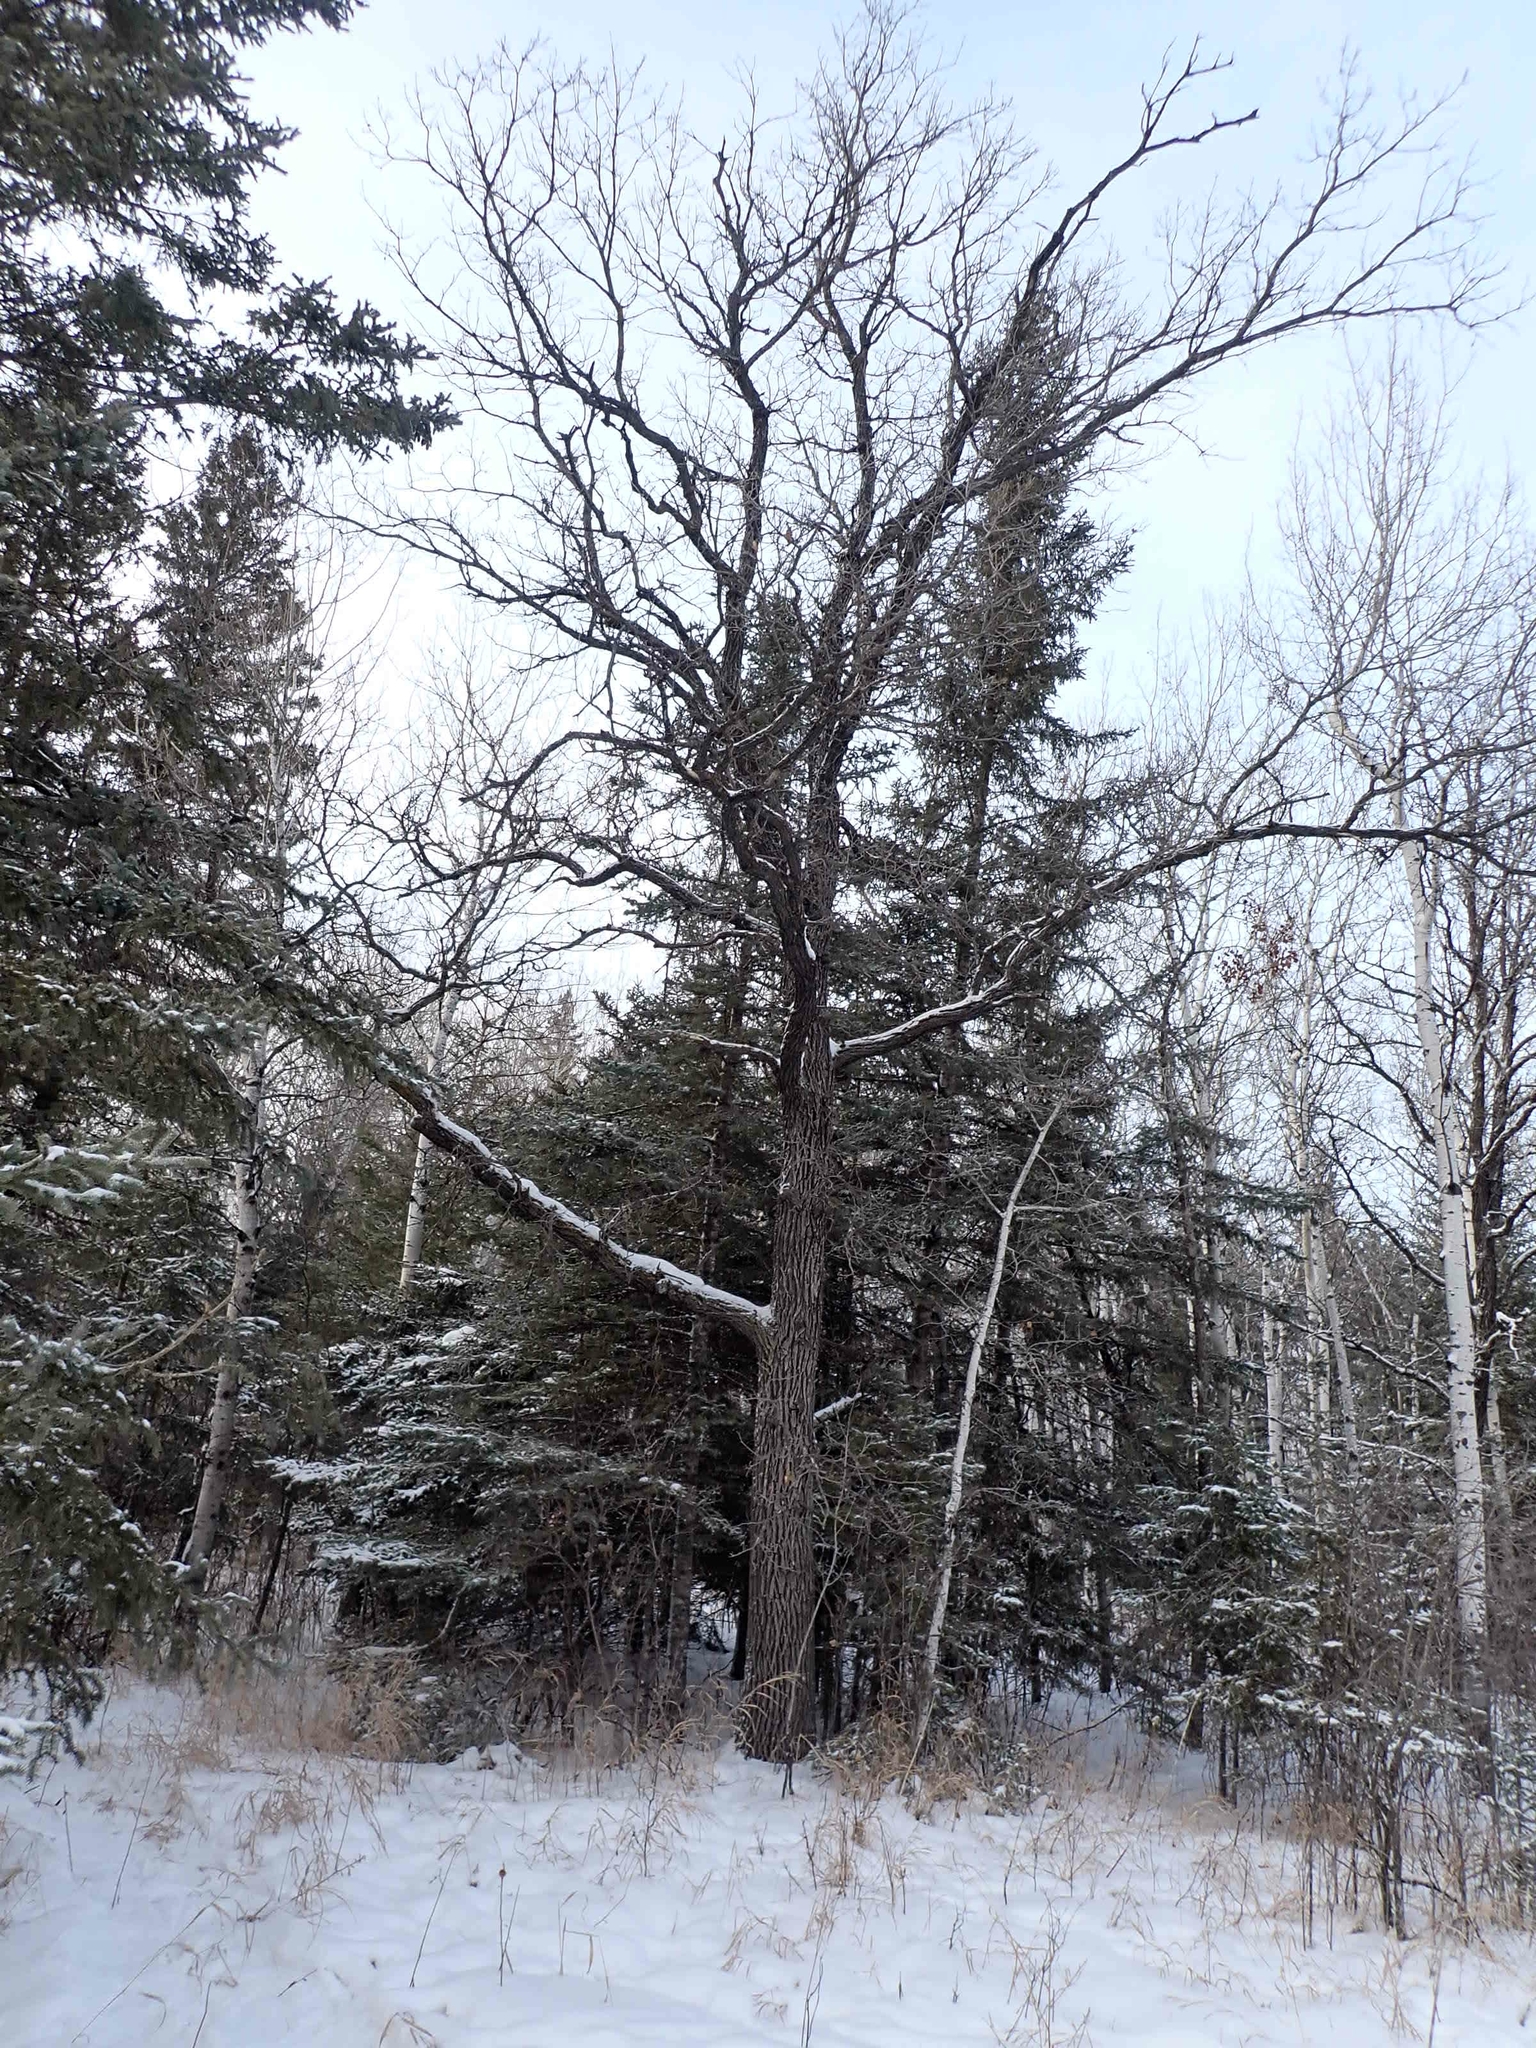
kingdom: Plantae
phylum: Tracheophyta
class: Magnoliopsida
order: Fagales
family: Fagaceae
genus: Quercus
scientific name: Quercus macrocarpa
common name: Bur oak
